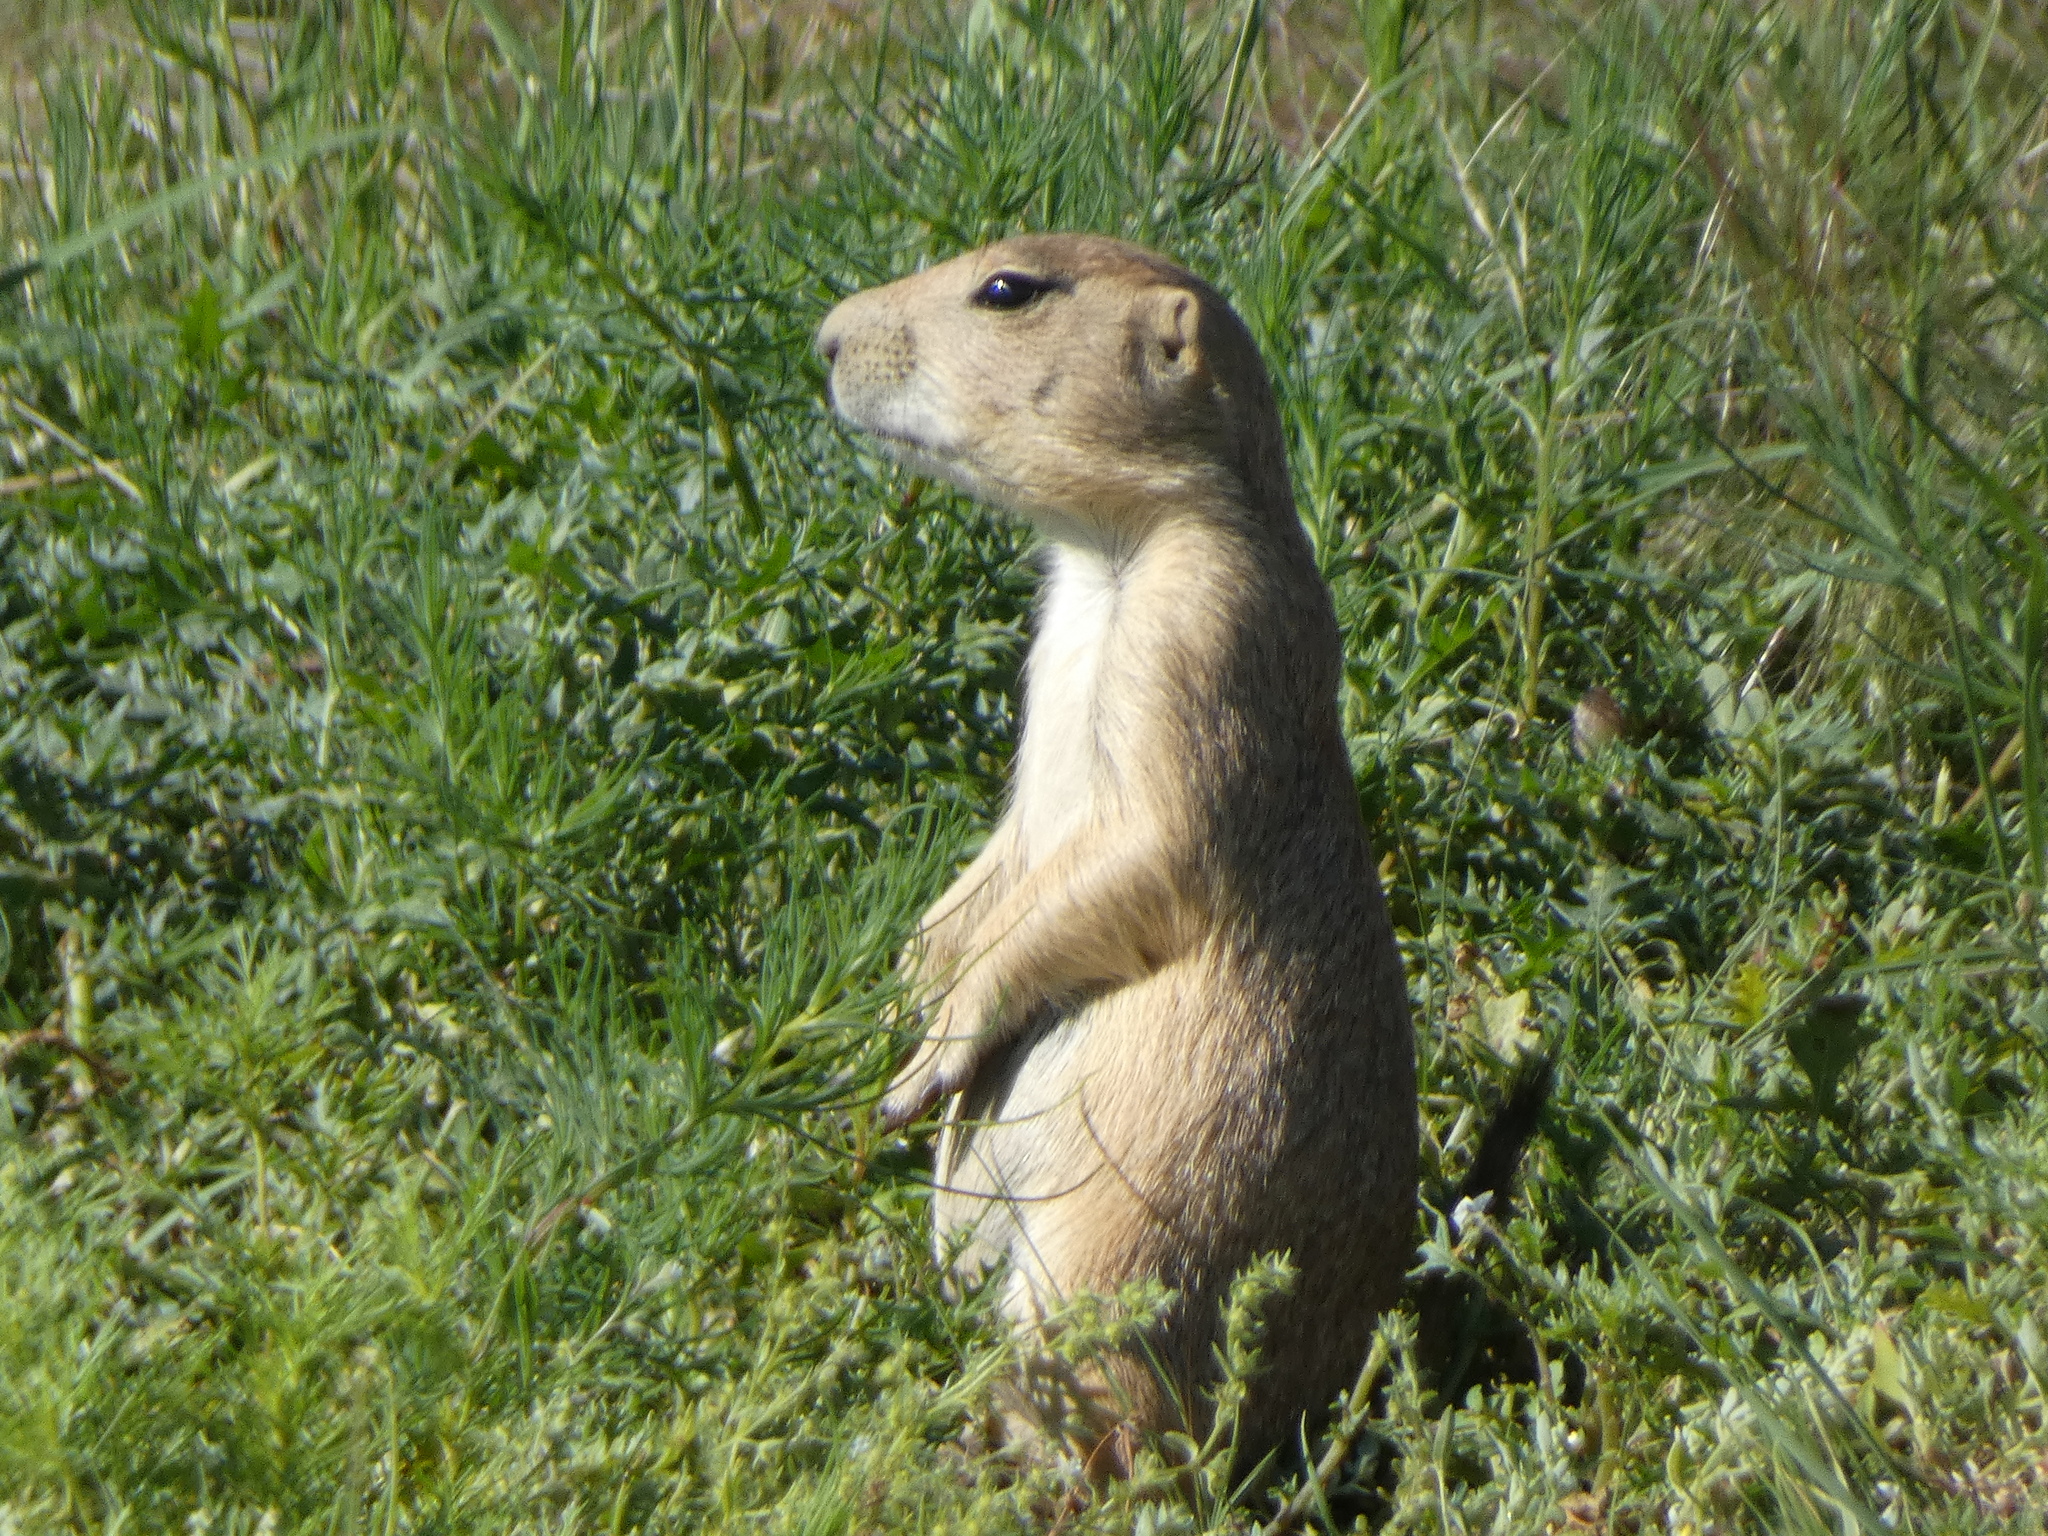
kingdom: Animalia
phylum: Chordata
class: Mammalia
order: Rodentia
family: Sciuridae
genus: Cynomys
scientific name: Cynomys ludovicianus
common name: Black-tailed prairie dog
